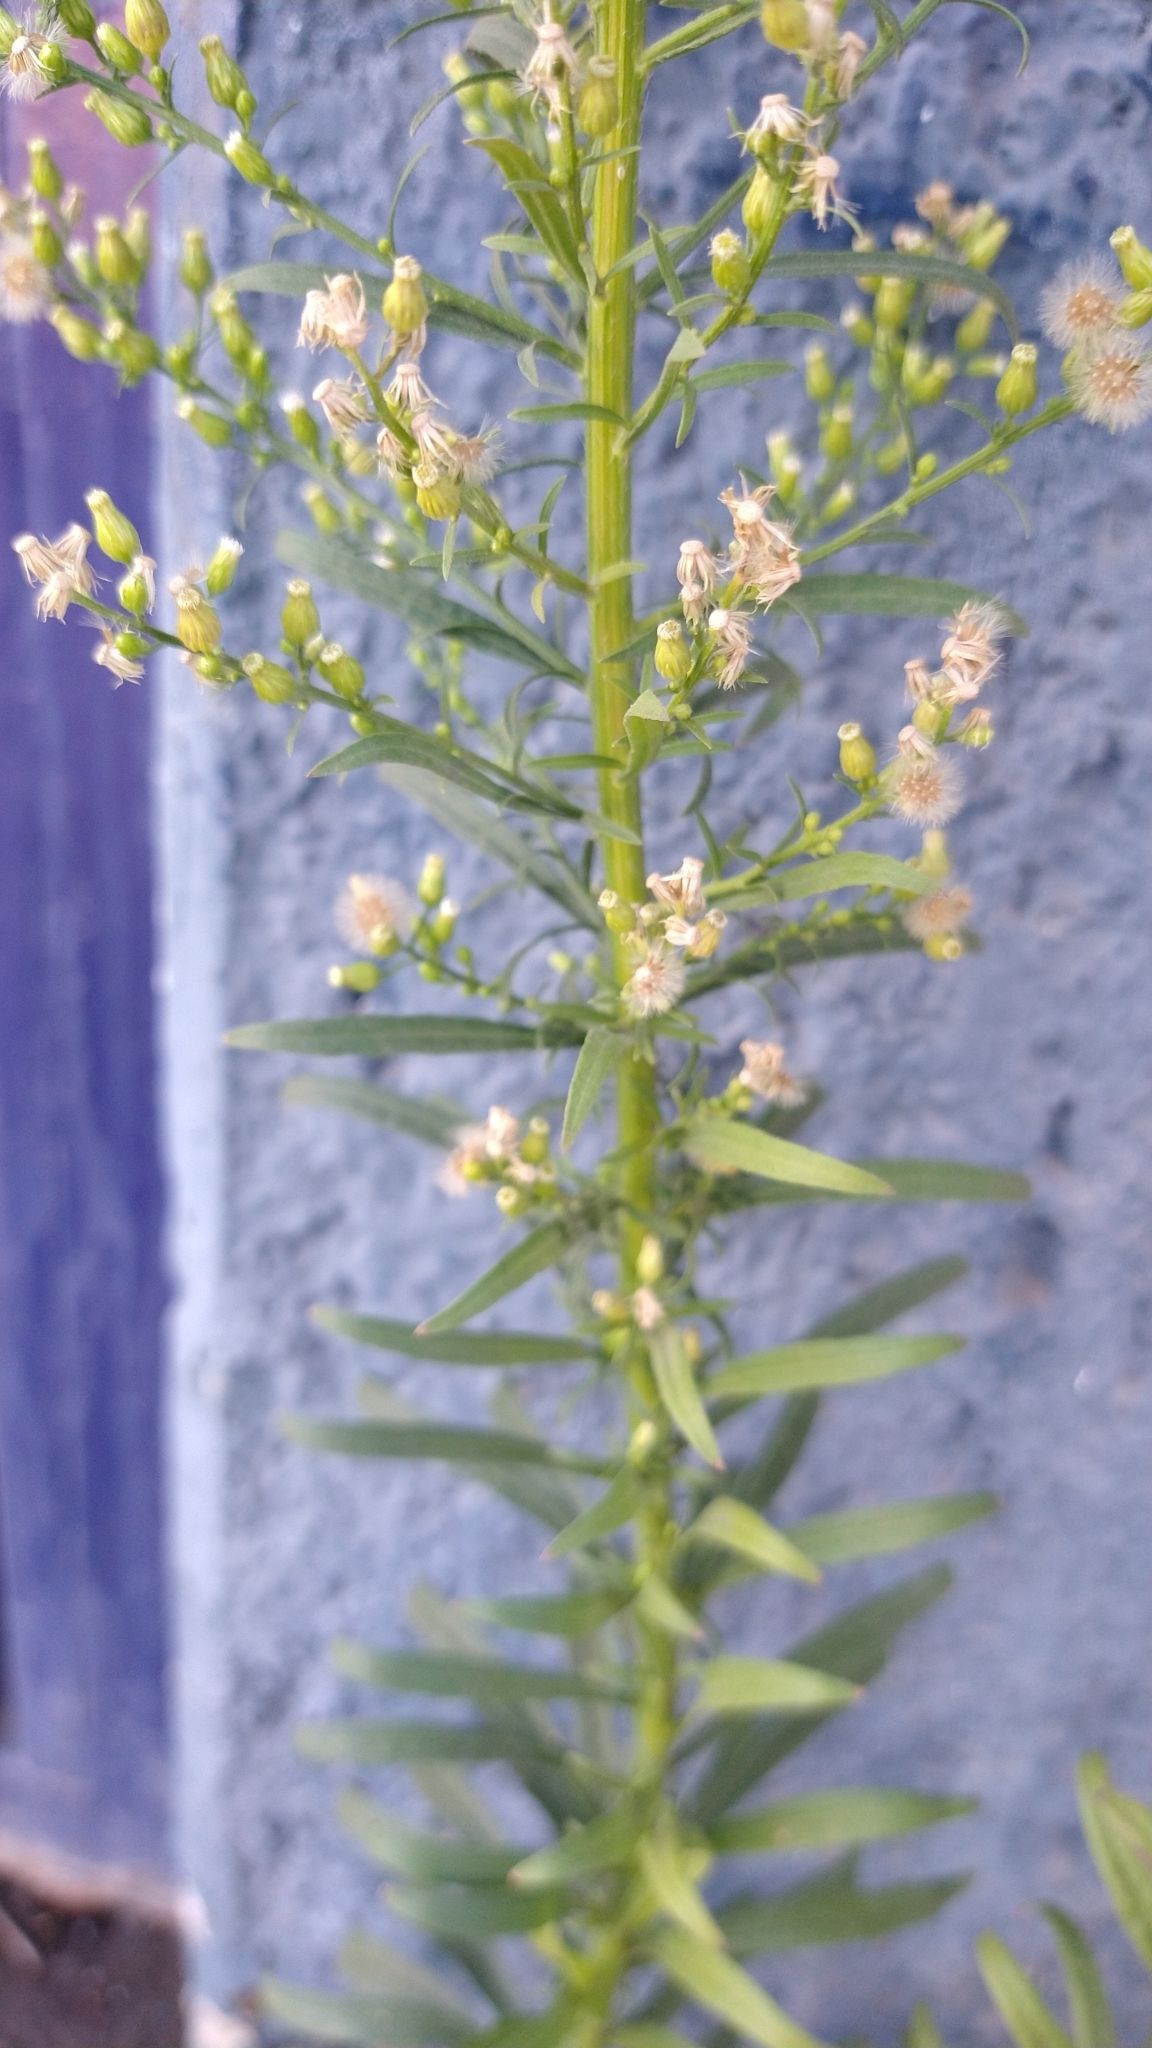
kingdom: Plantae
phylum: Tracheophyta
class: Magnoliopsida
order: Asterales
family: Asteraceae
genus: Erigeron
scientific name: Erigeron canadensis
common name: Canadian fleabane
